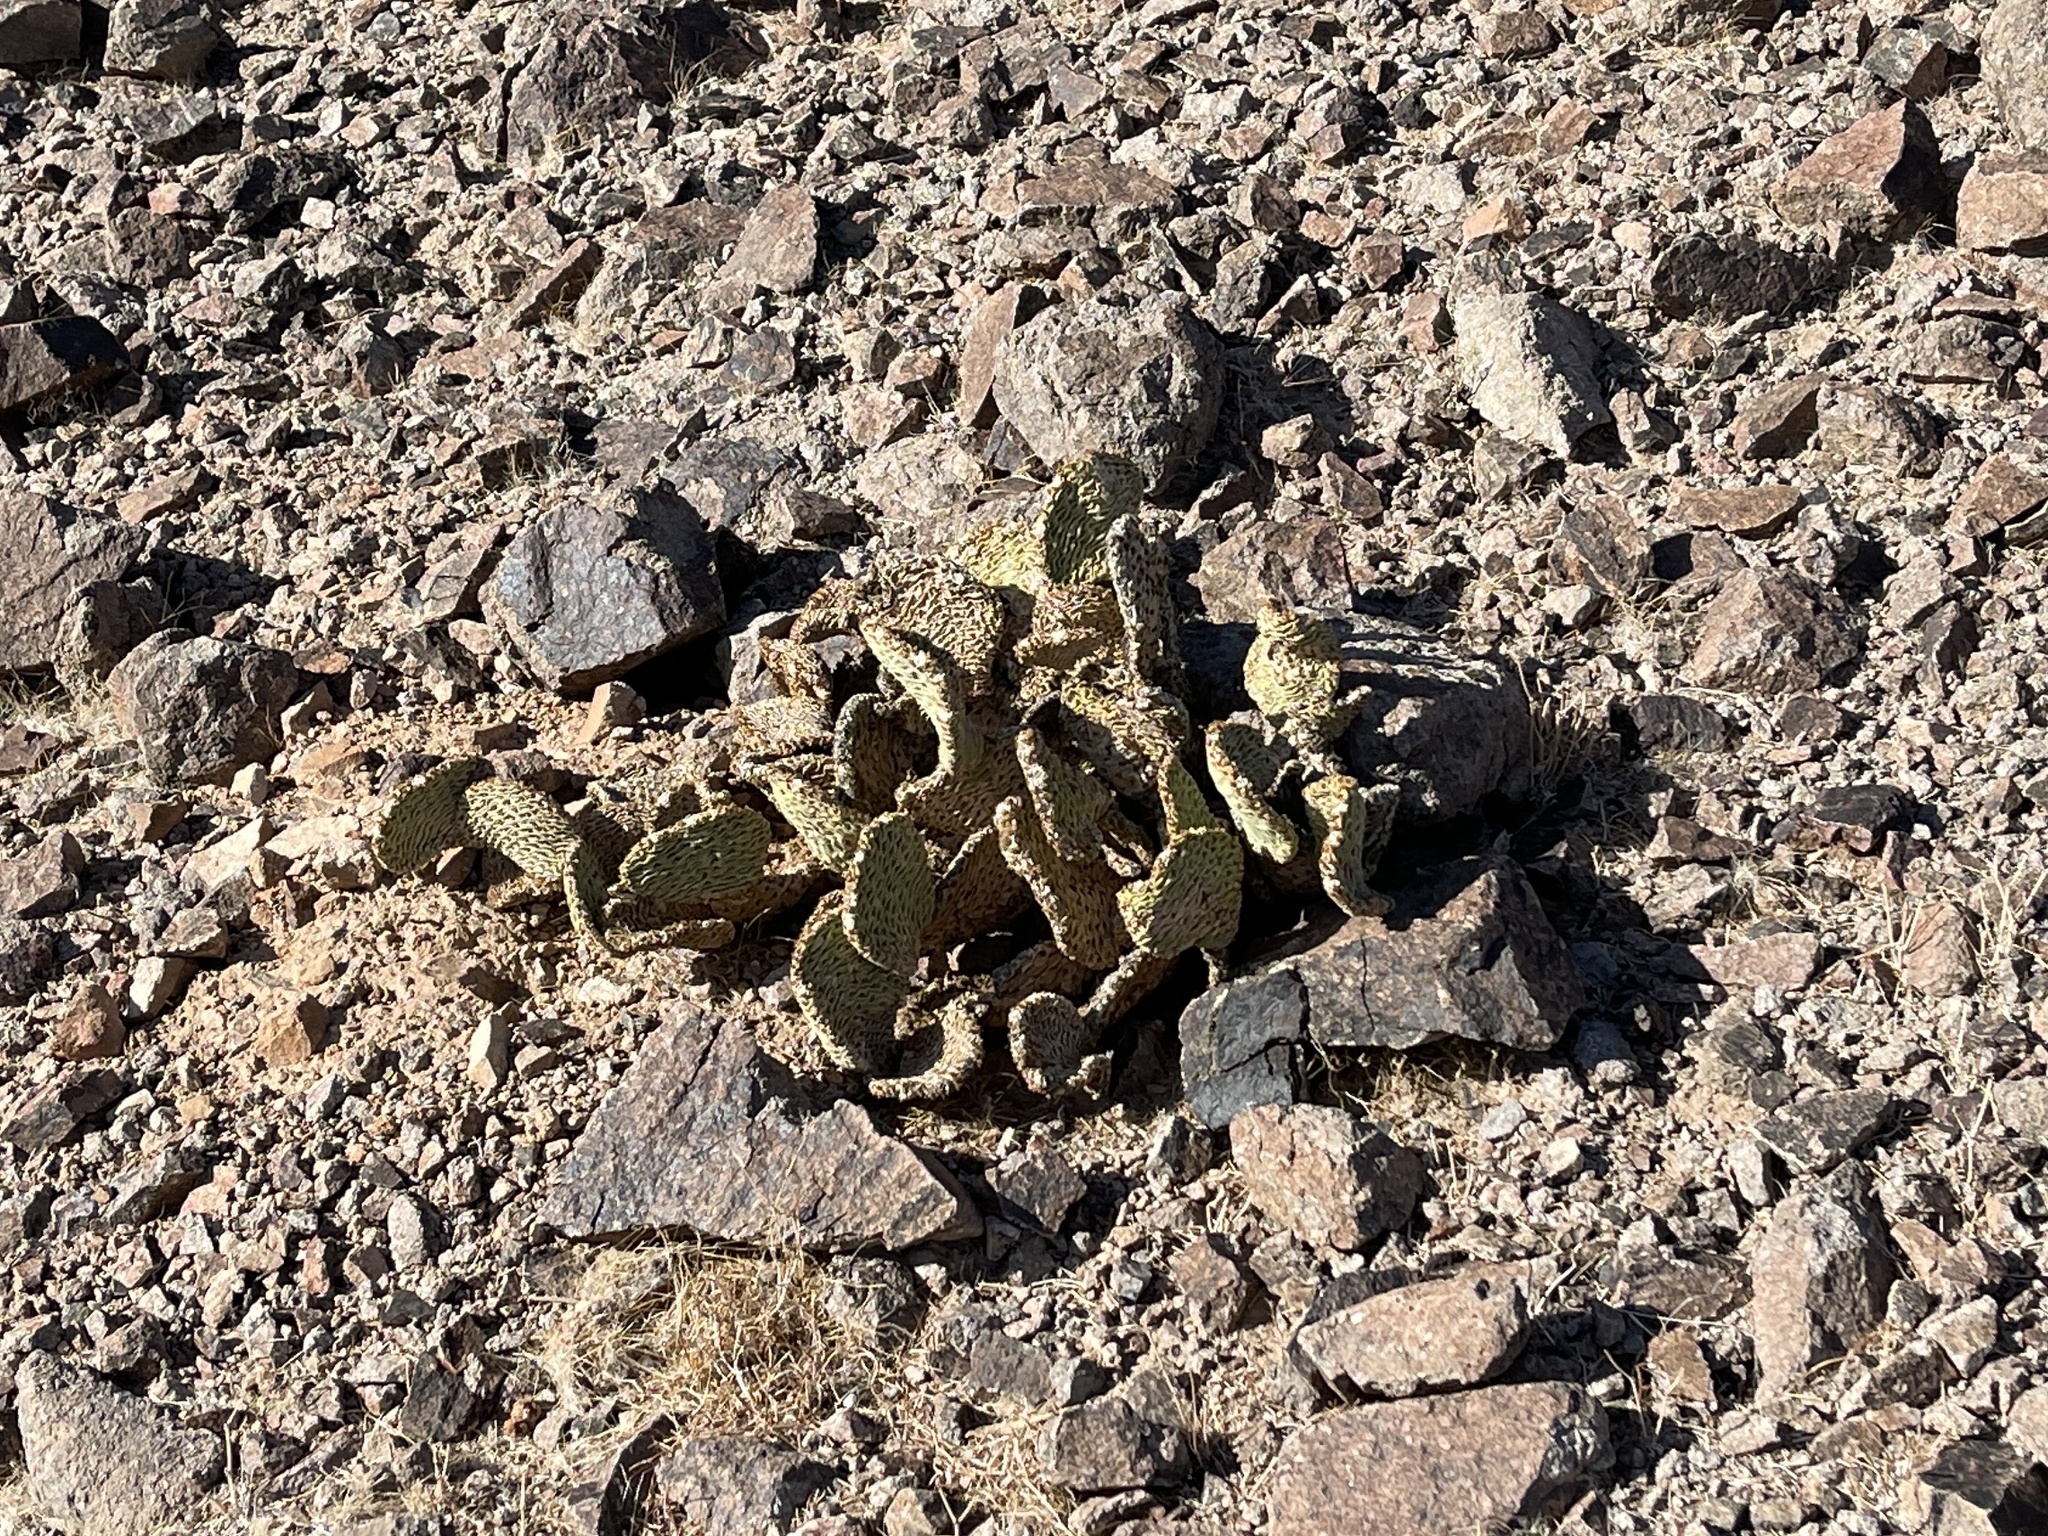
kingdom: Plantae
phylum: Tracheophyta
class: Magnoliopsida
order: Caryophyllales
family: Cactaceae
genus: Opuntia
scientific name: Opuntia basilaris
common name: Beavertail prickly-pear
